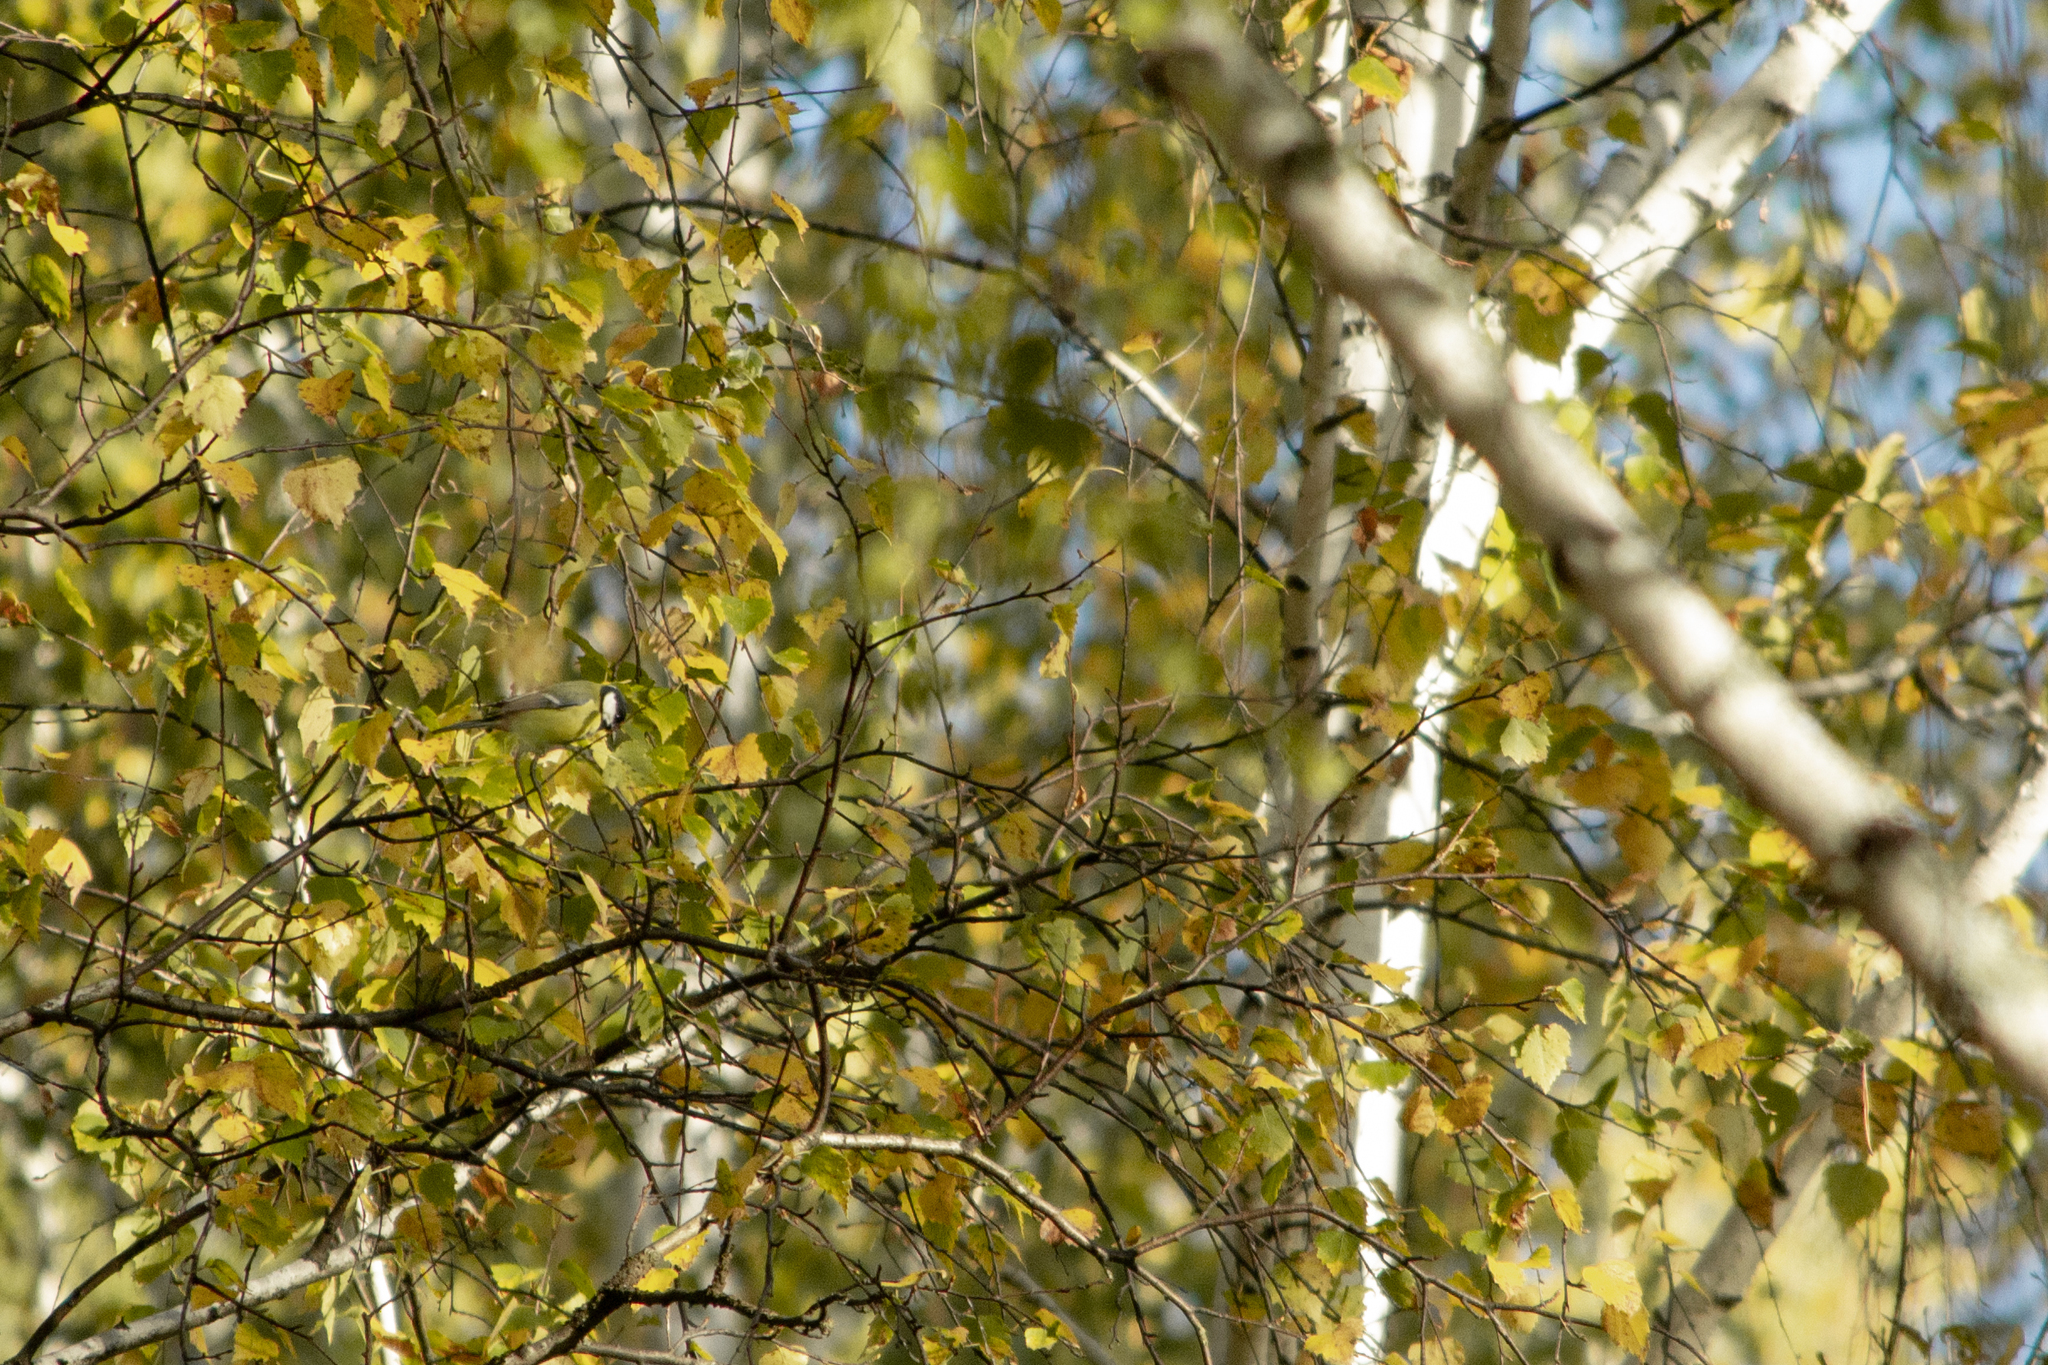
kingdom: Animalia
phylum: Chordata
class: Aves
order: Passeriformes
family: Paridae
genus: Parus
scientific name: Parus major
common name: Great tit
